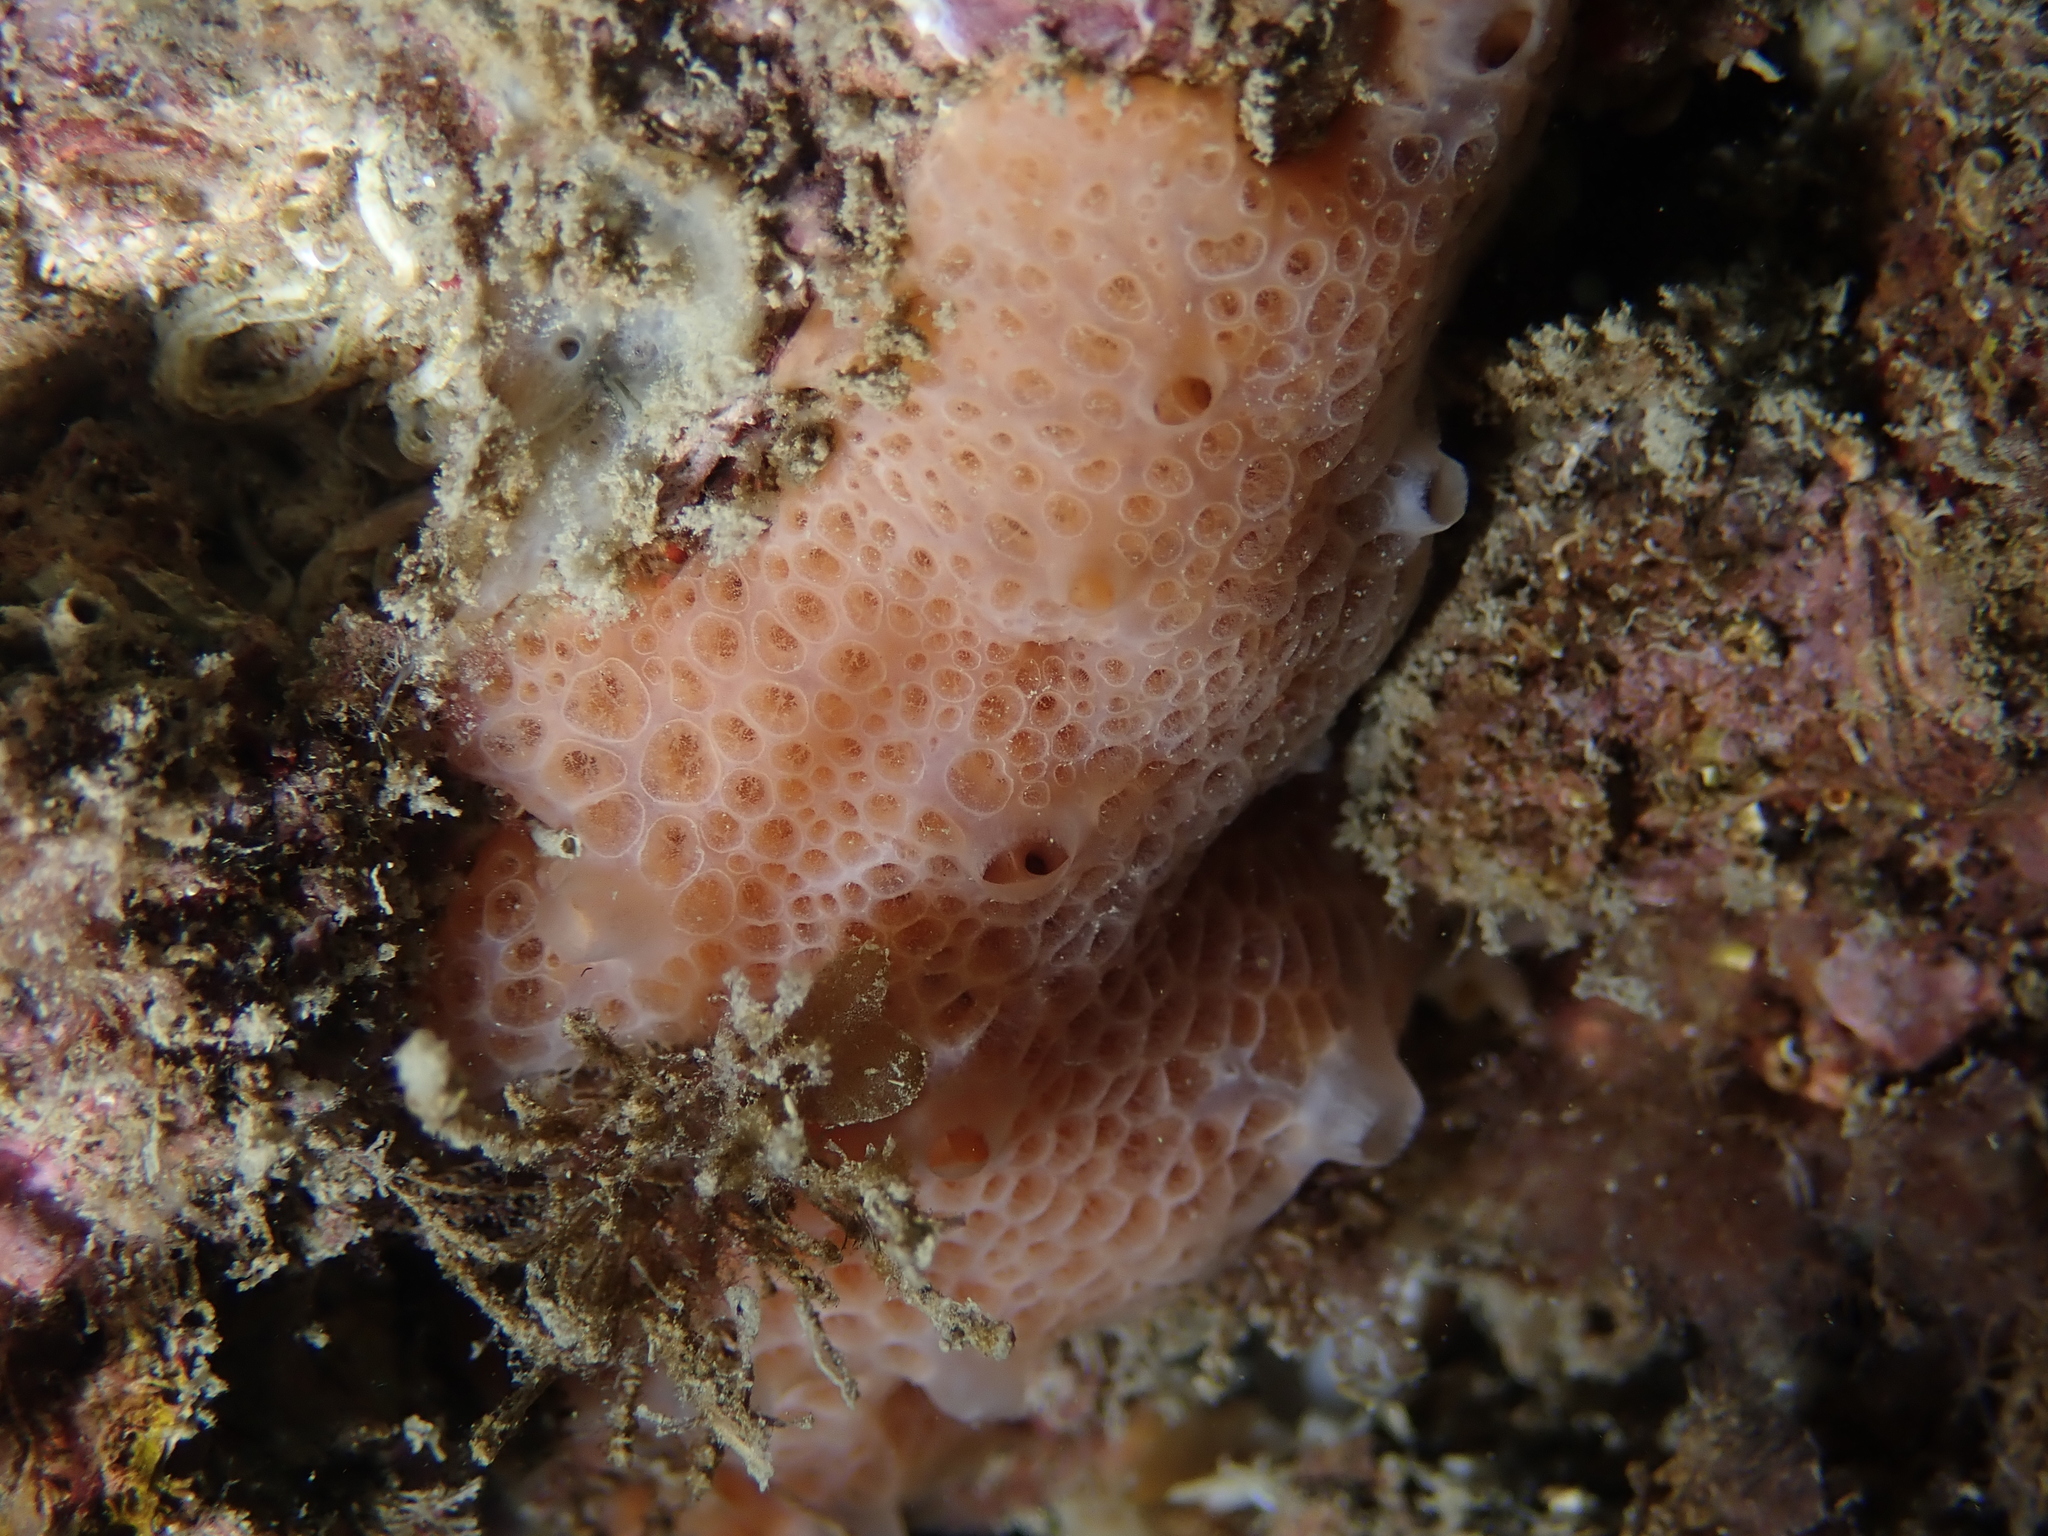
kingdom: Animalia
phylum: Porifera
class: Demospongiae
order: Poecilosclerida
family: Hymedesmiidae
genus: Hemimycale
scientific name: Hemimycale columella
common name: Crater sponge
